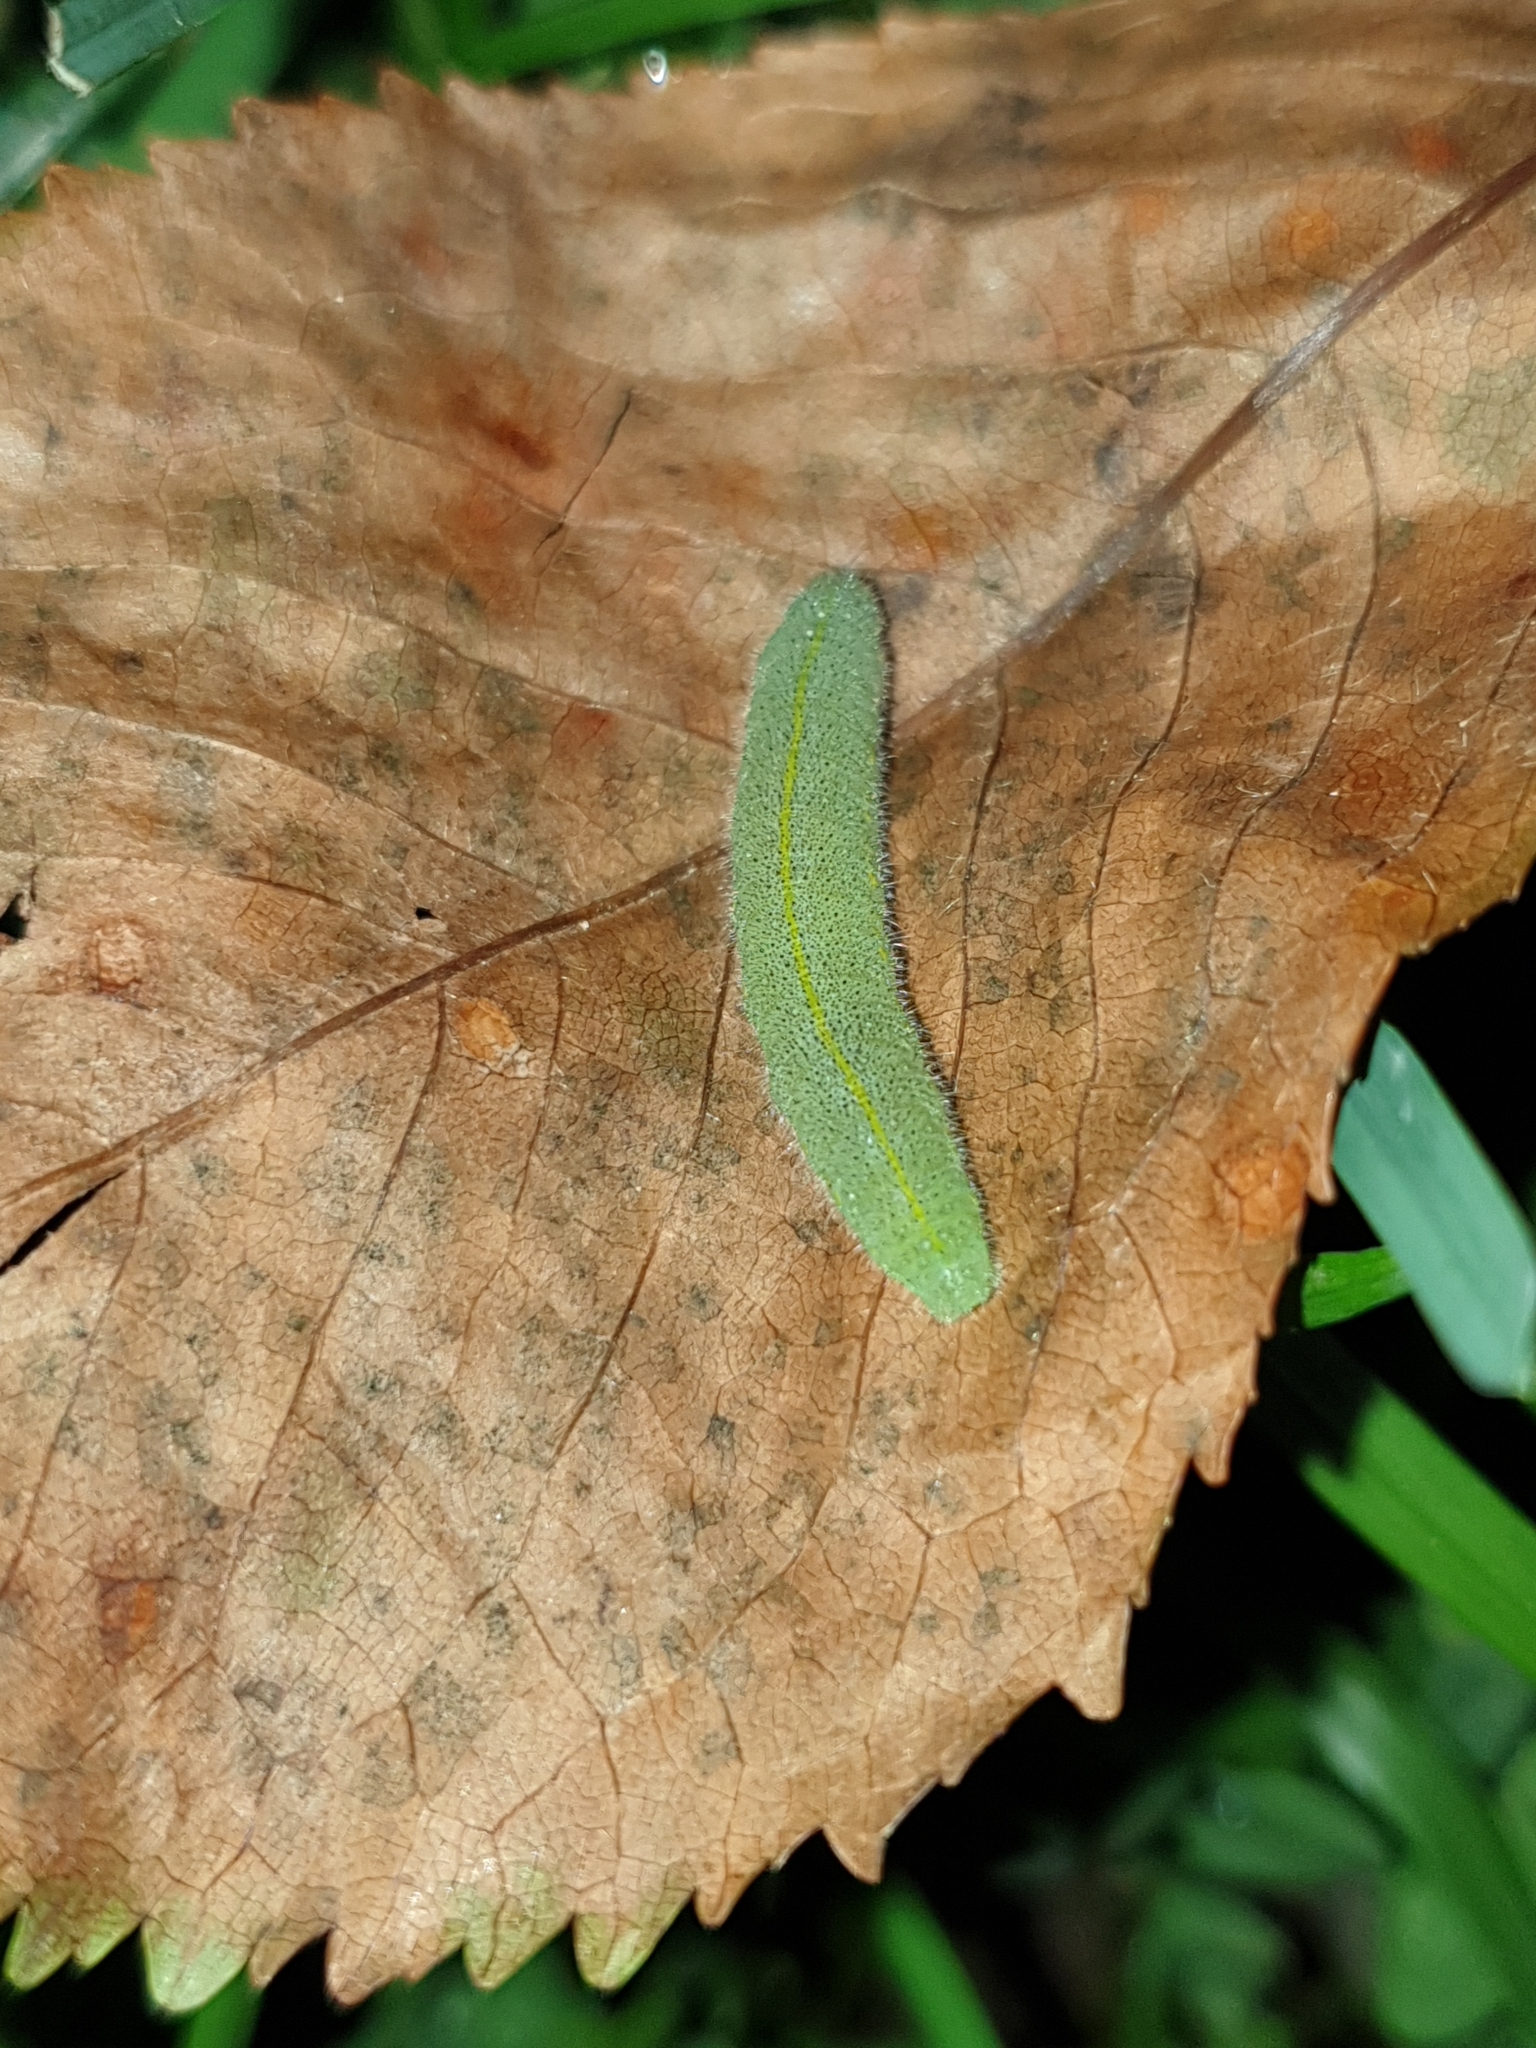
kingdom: Animalia
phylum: Arthropoda
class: Insecta
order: Lepidoptera
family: Pieridae
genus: Pieris
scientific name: Pieris rapae
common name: Small white
